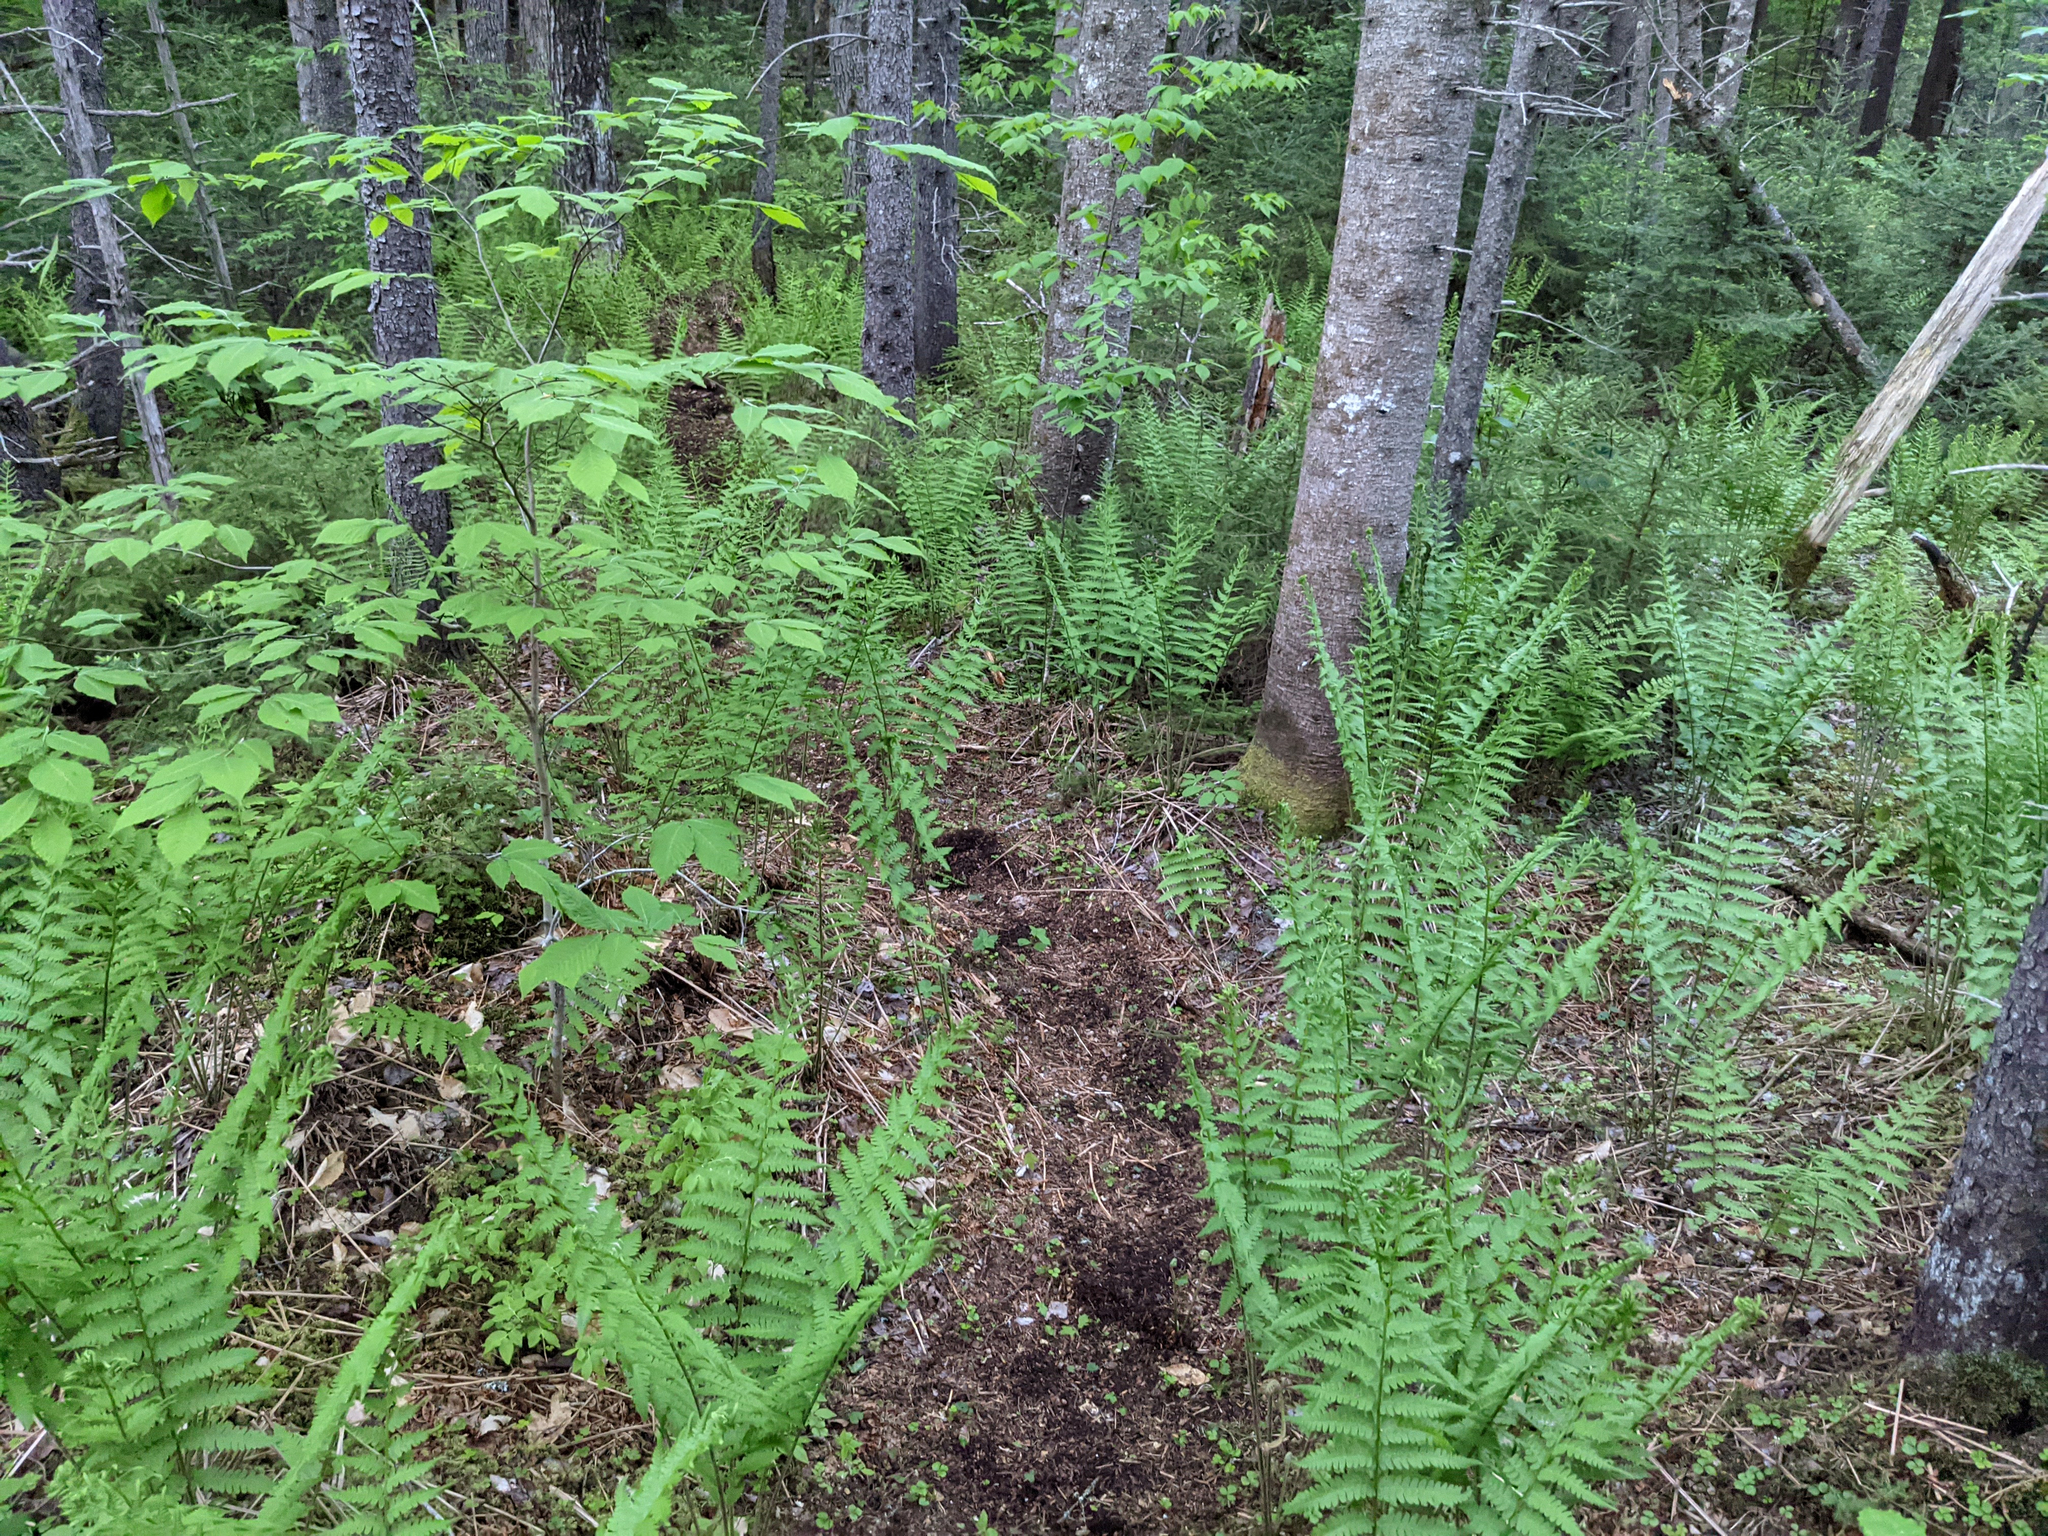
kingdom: Plantae
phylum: Tracheophyta
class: Polypodiopsida
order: Osmundales
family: Osmundaceae
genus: Osmundastrum
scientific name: Osmundastrum cinnamomeum
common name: Cinnamon fern
